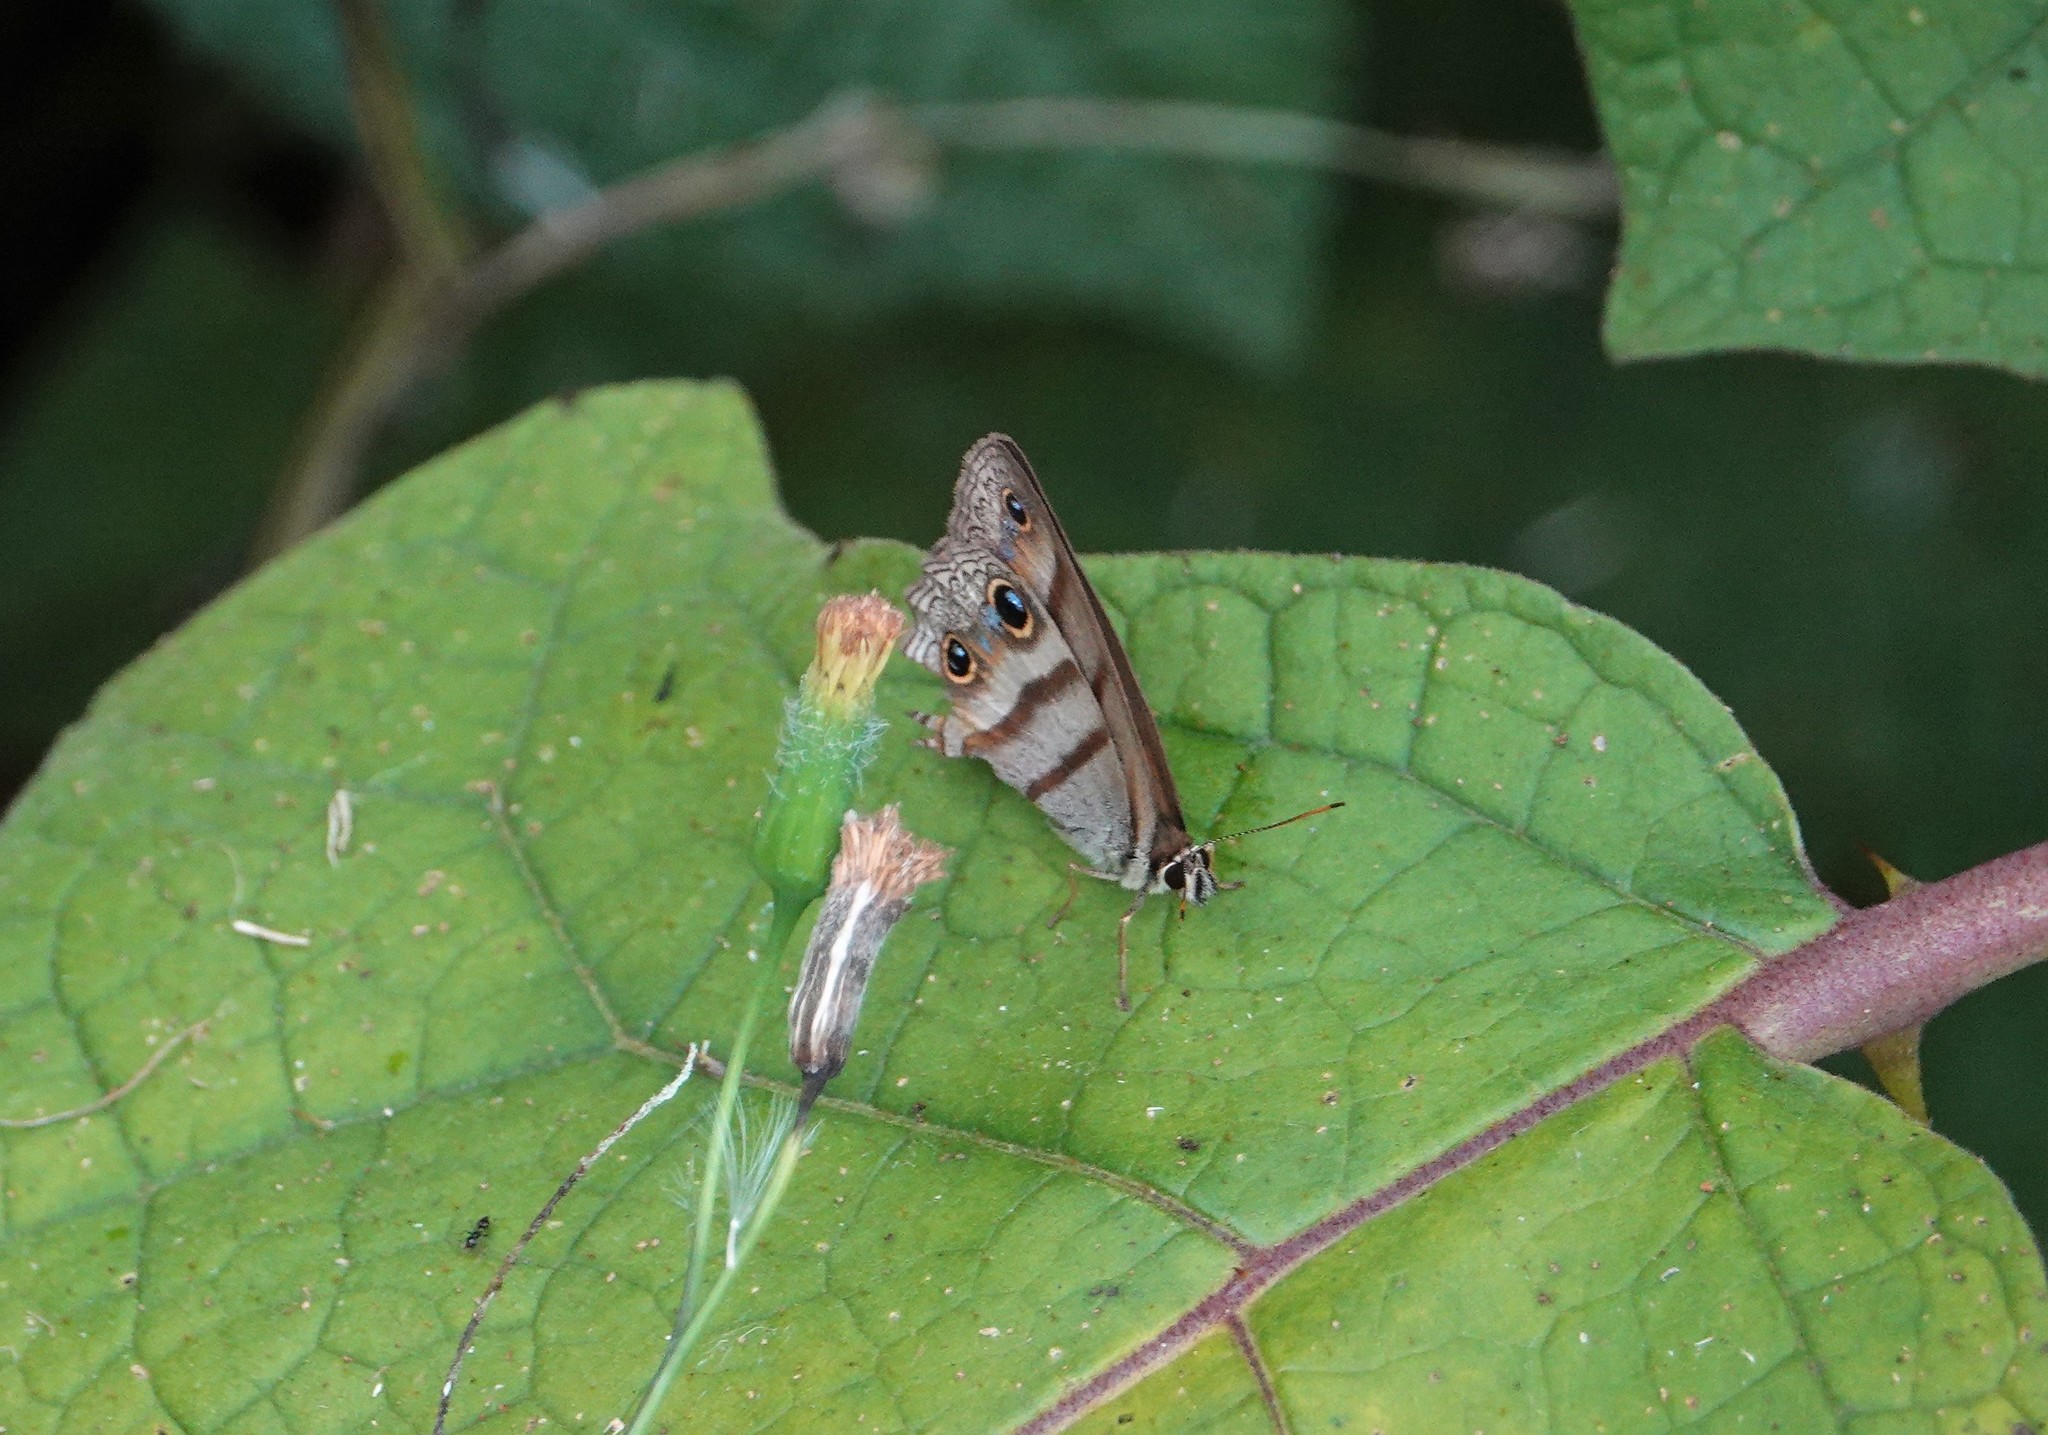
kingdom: Animalia
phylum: Arthropoda
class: Insecta
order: Lepidoptera
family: Nymphalidae
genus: Argyreuptychia
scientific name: Argyreuptychia penelope
